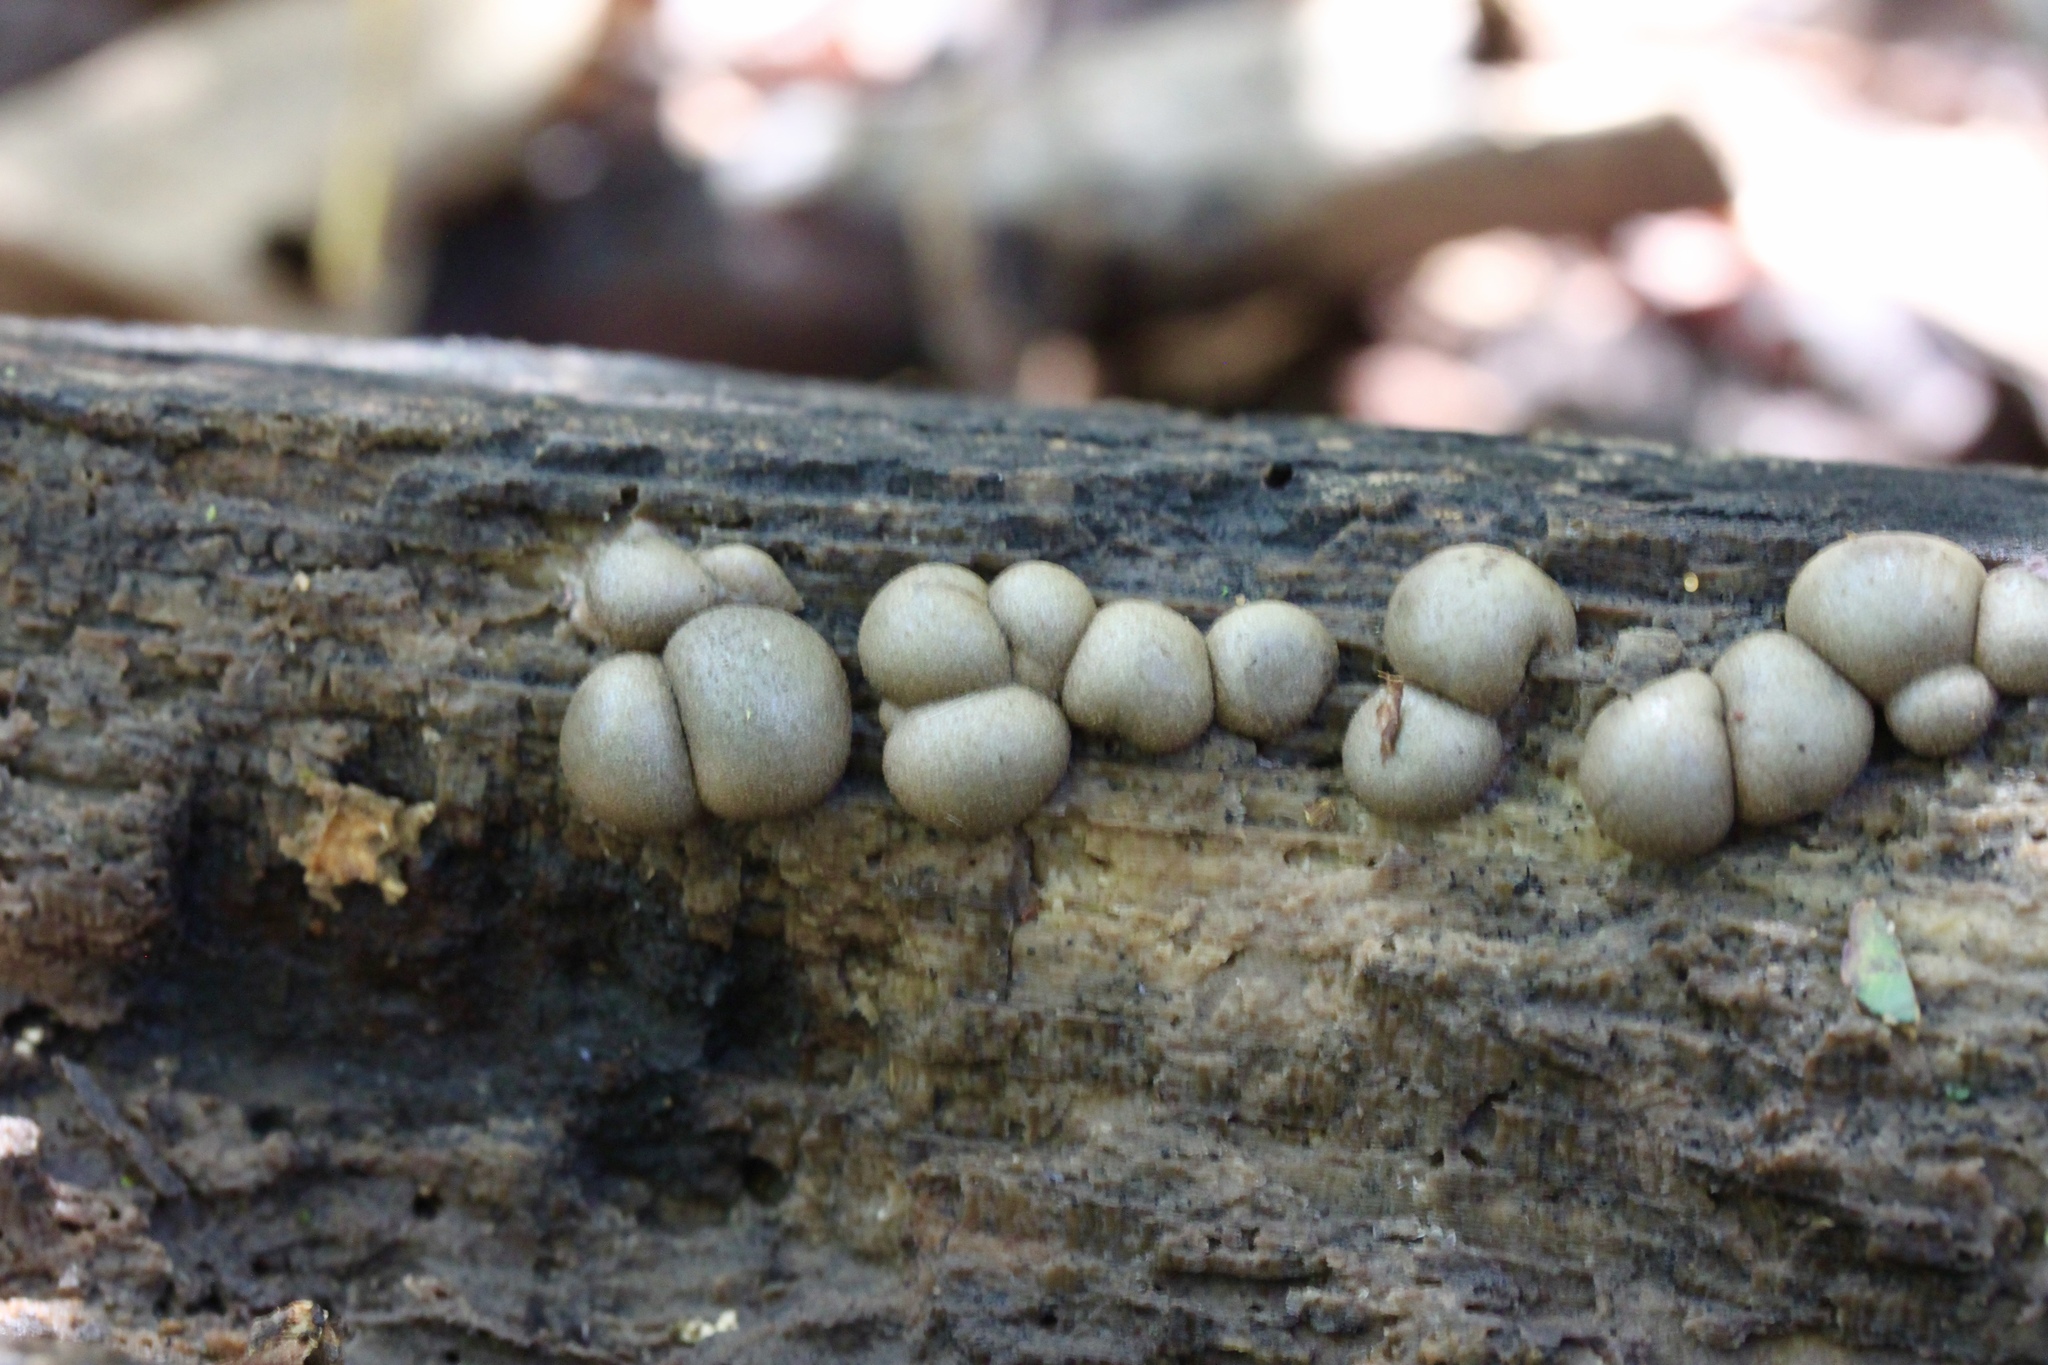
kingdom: Protozoa
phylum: Mycetozoa
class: Myxomycetes
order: Cribrariales
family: Tubiferaceae
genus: Lycogala
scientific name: Lycogala epidendrum
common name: Wolf's milk
